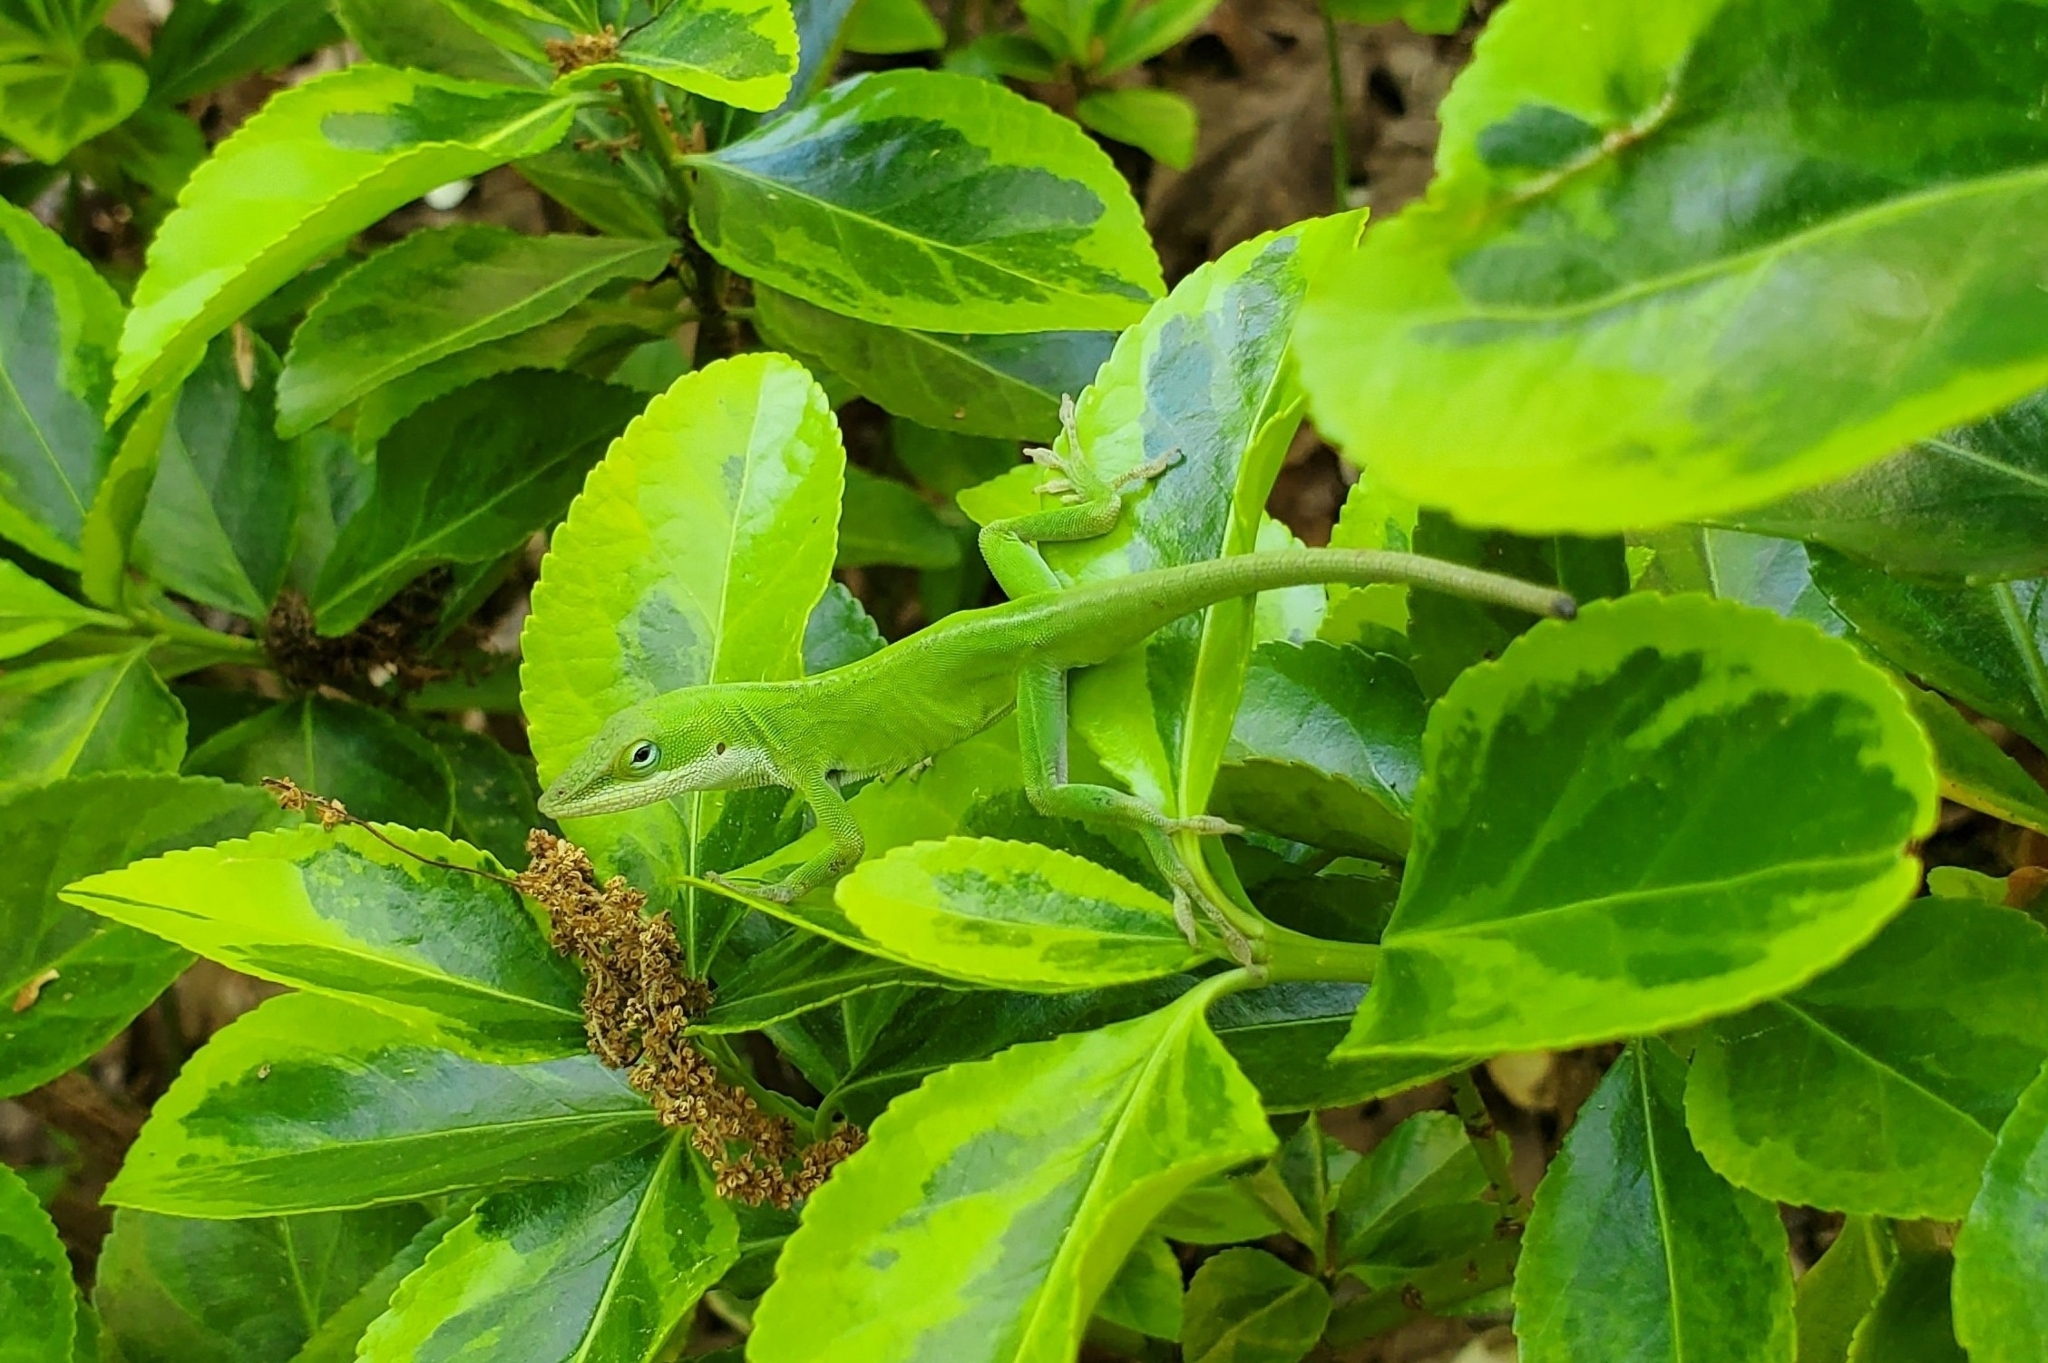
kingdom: Animalia
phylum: Chordata
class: Squamata
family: Dactyloidae
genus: Anolis
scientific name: Anolis carolinensis
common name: Green anole
